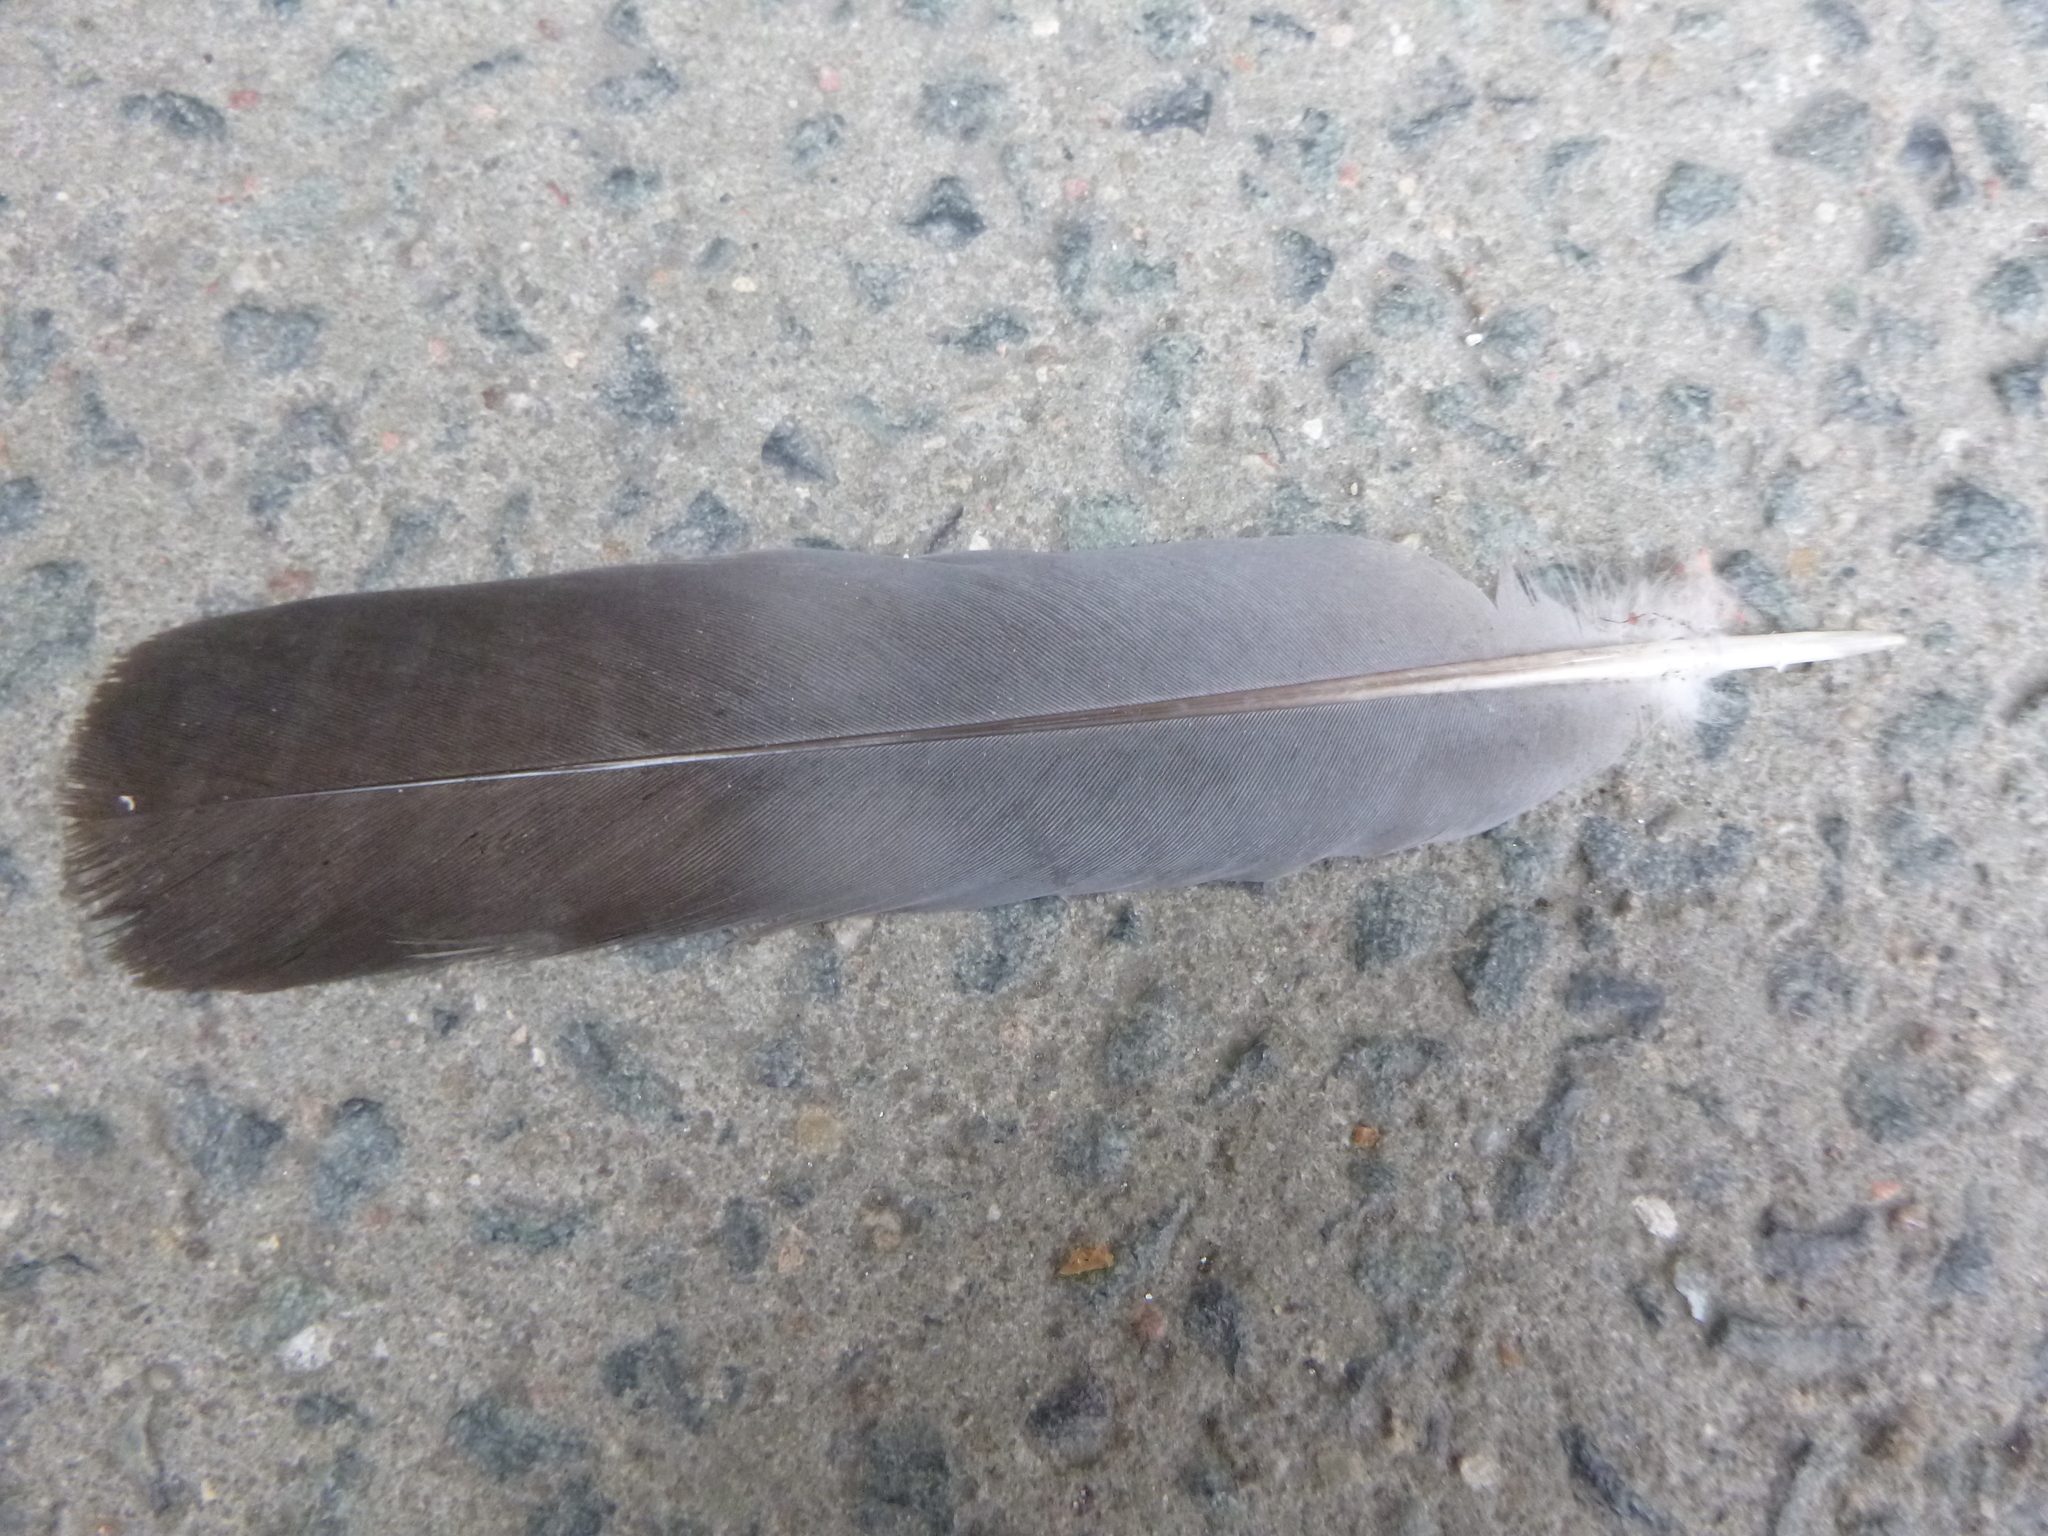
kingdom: Animalia
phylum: Chordata
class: Aves
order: Columbiformes
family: Columbidae
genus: Columba
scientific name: Columba palumbus
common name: Common wood pigeon
